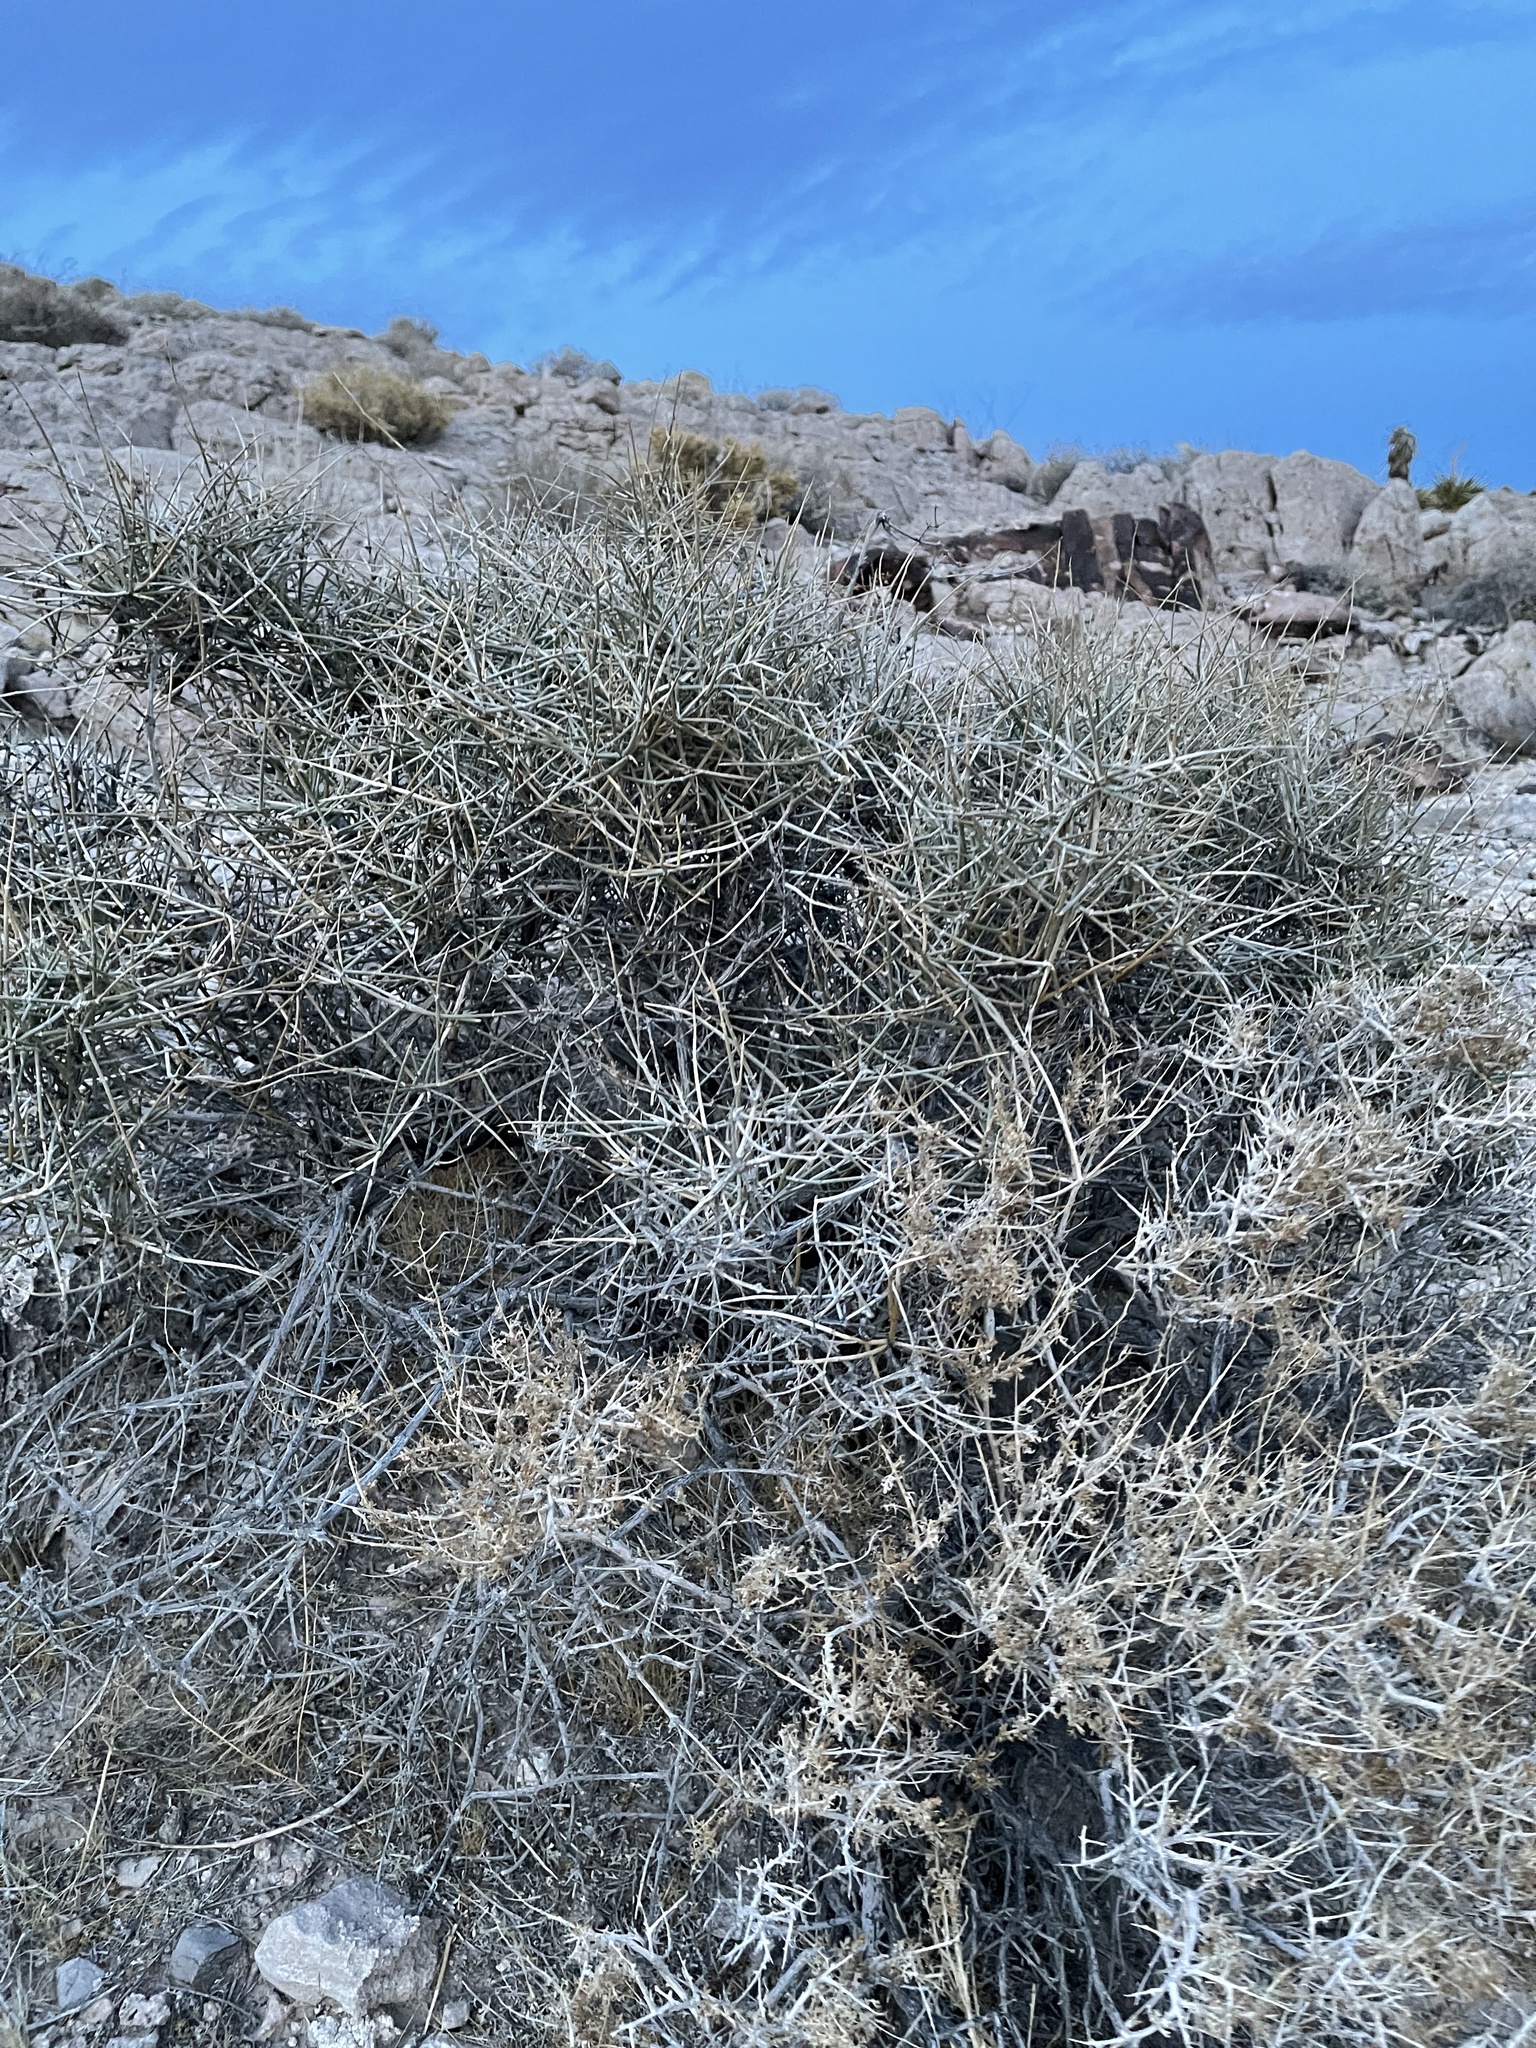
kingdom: Plantae
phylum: Tracheophyta
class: Gnetopsida
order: Ephedrales
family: Ephedraceae
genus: Ephedra
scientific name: Ephedra nevadensis
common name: Gray ephedra
